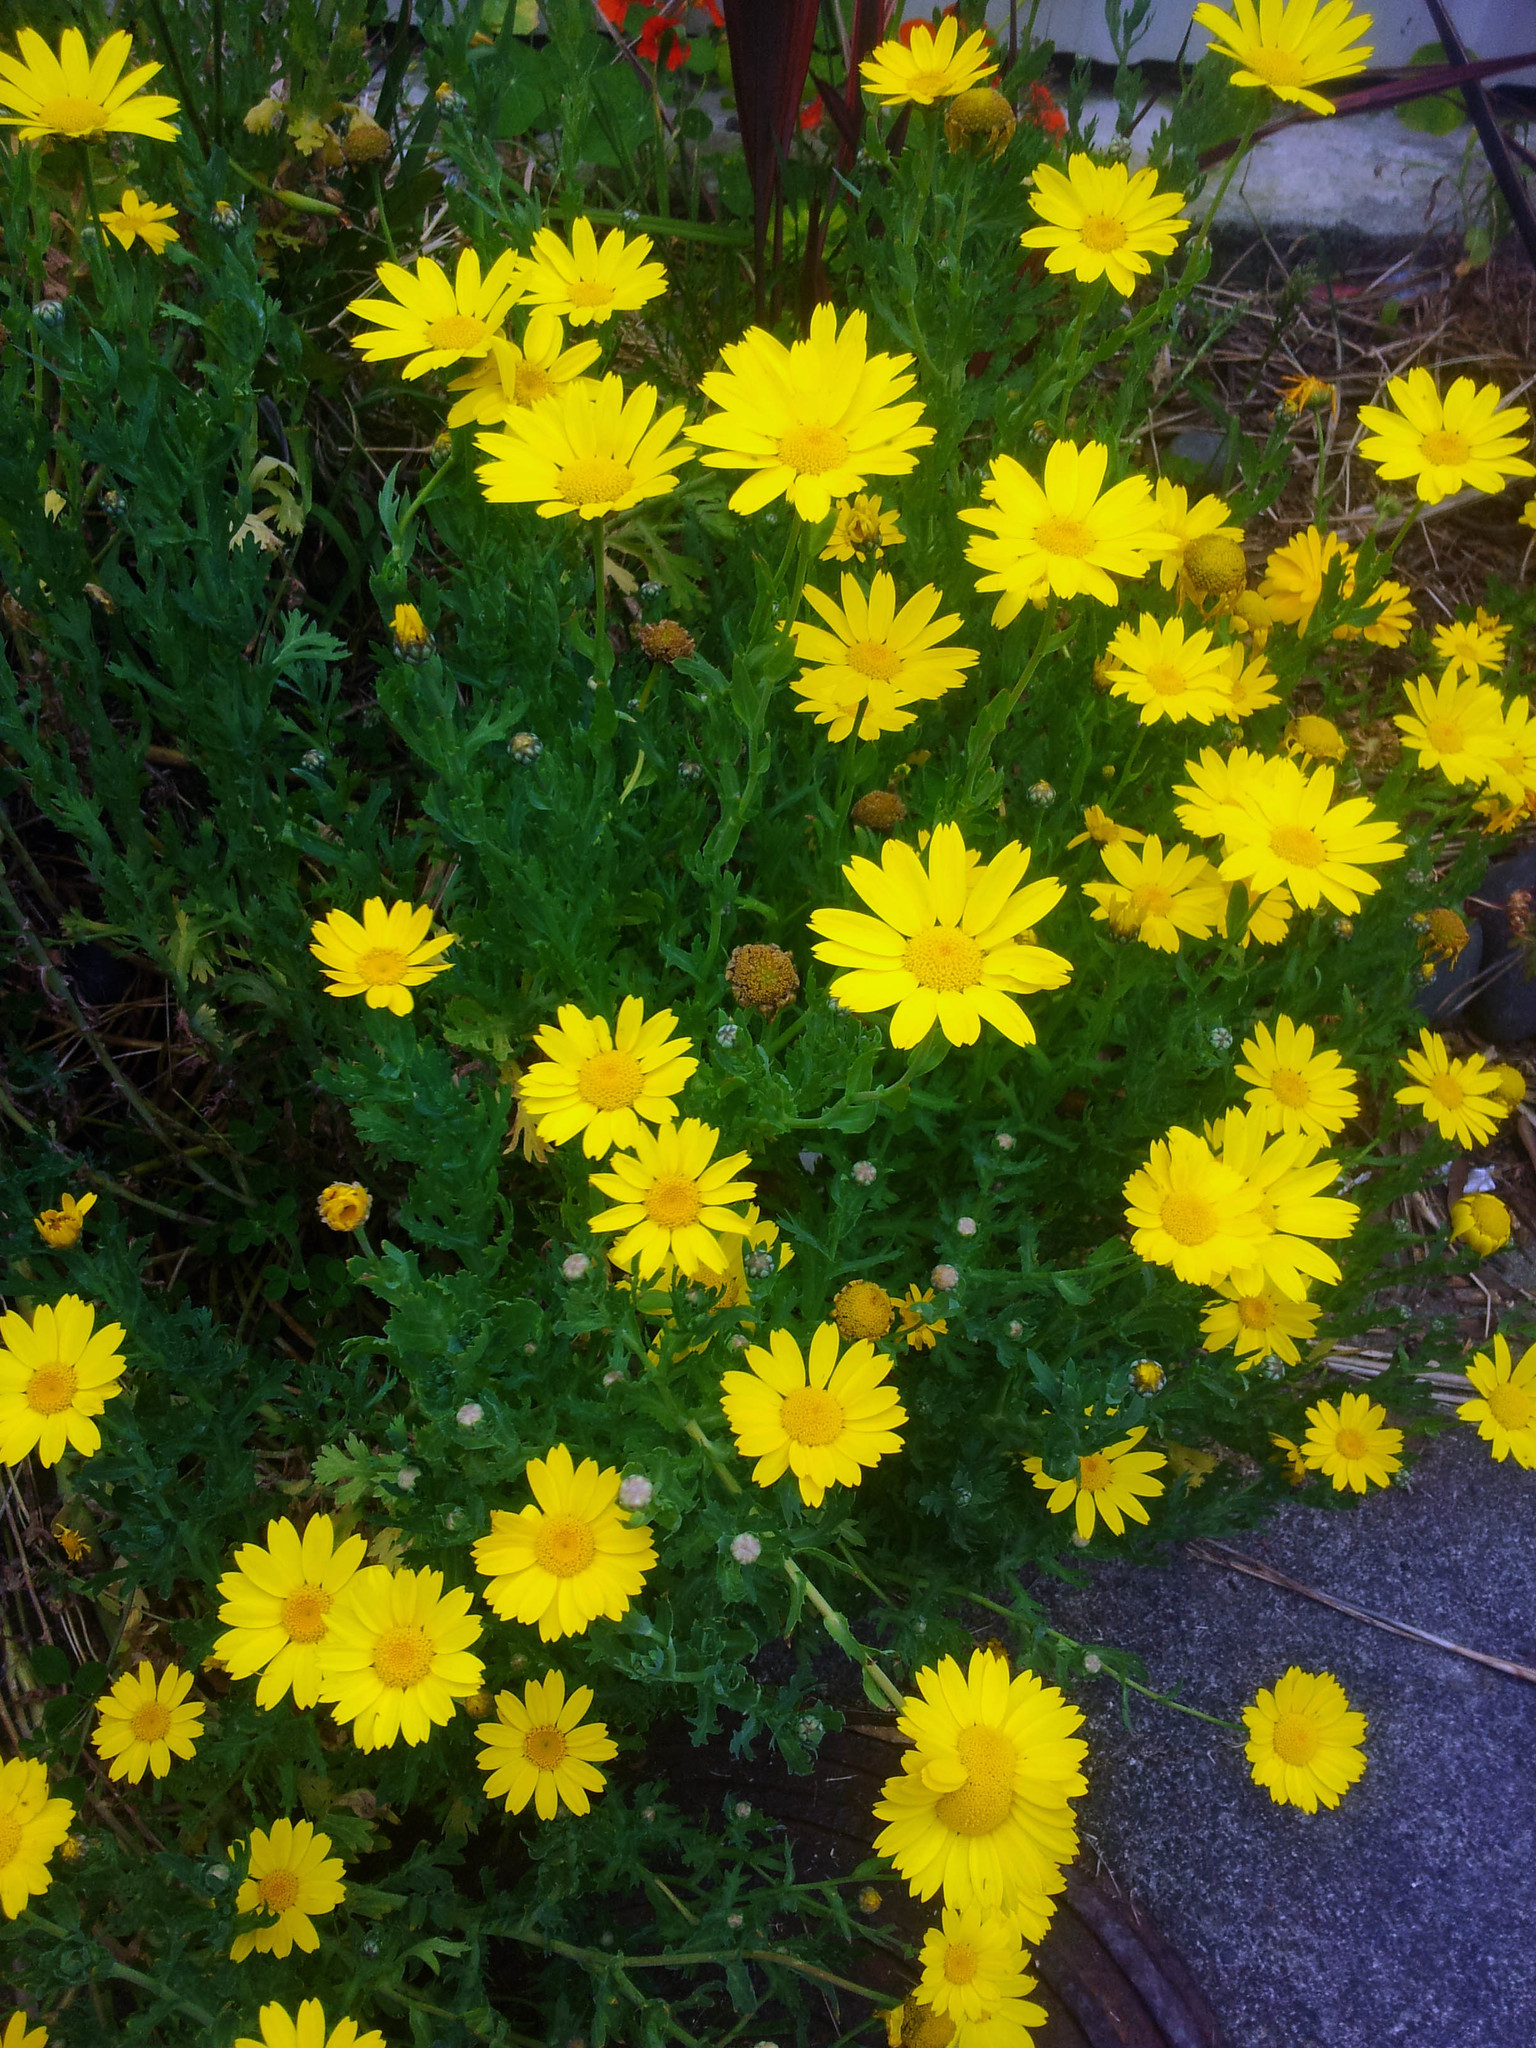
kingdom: Plantae
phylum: Tracheophyta
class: Magnoliopsida
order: Asterales
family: Asteraceae
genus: Glebionis
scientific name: Glebionis segetum
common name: Corndaisy
